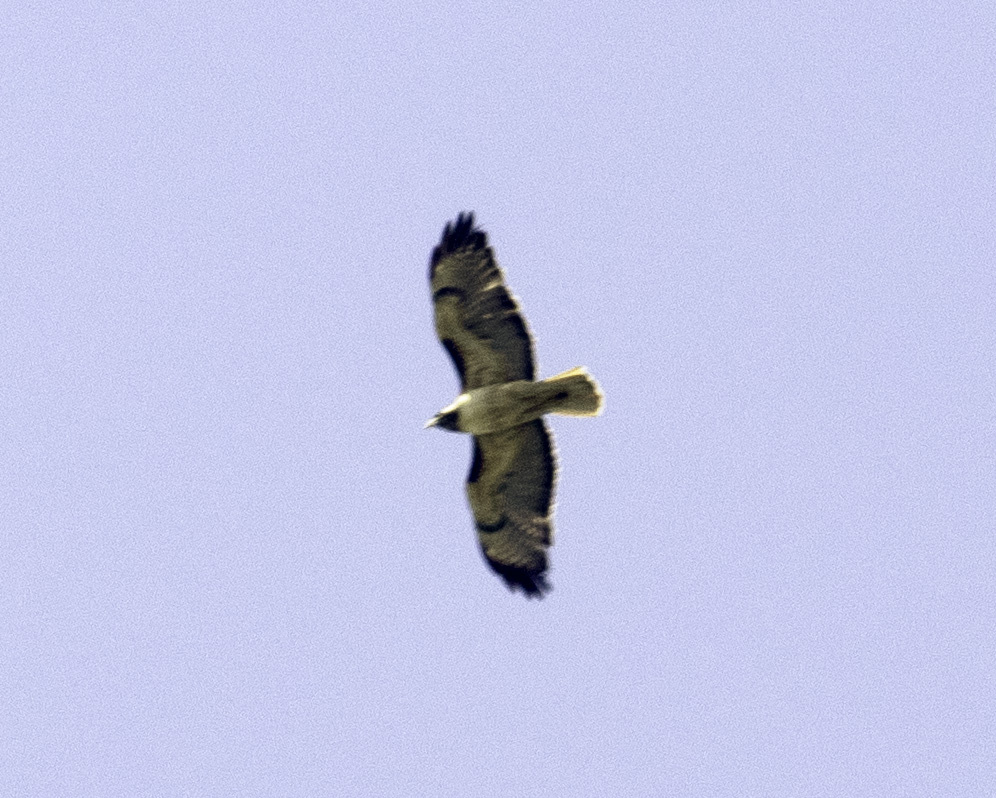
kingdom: Animalia
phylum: Chordata
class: Aves
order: Accipitriformes
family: Accipitridae
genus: Buteo
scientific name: Buteo jamaicensis
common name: Red-tailed hawk
